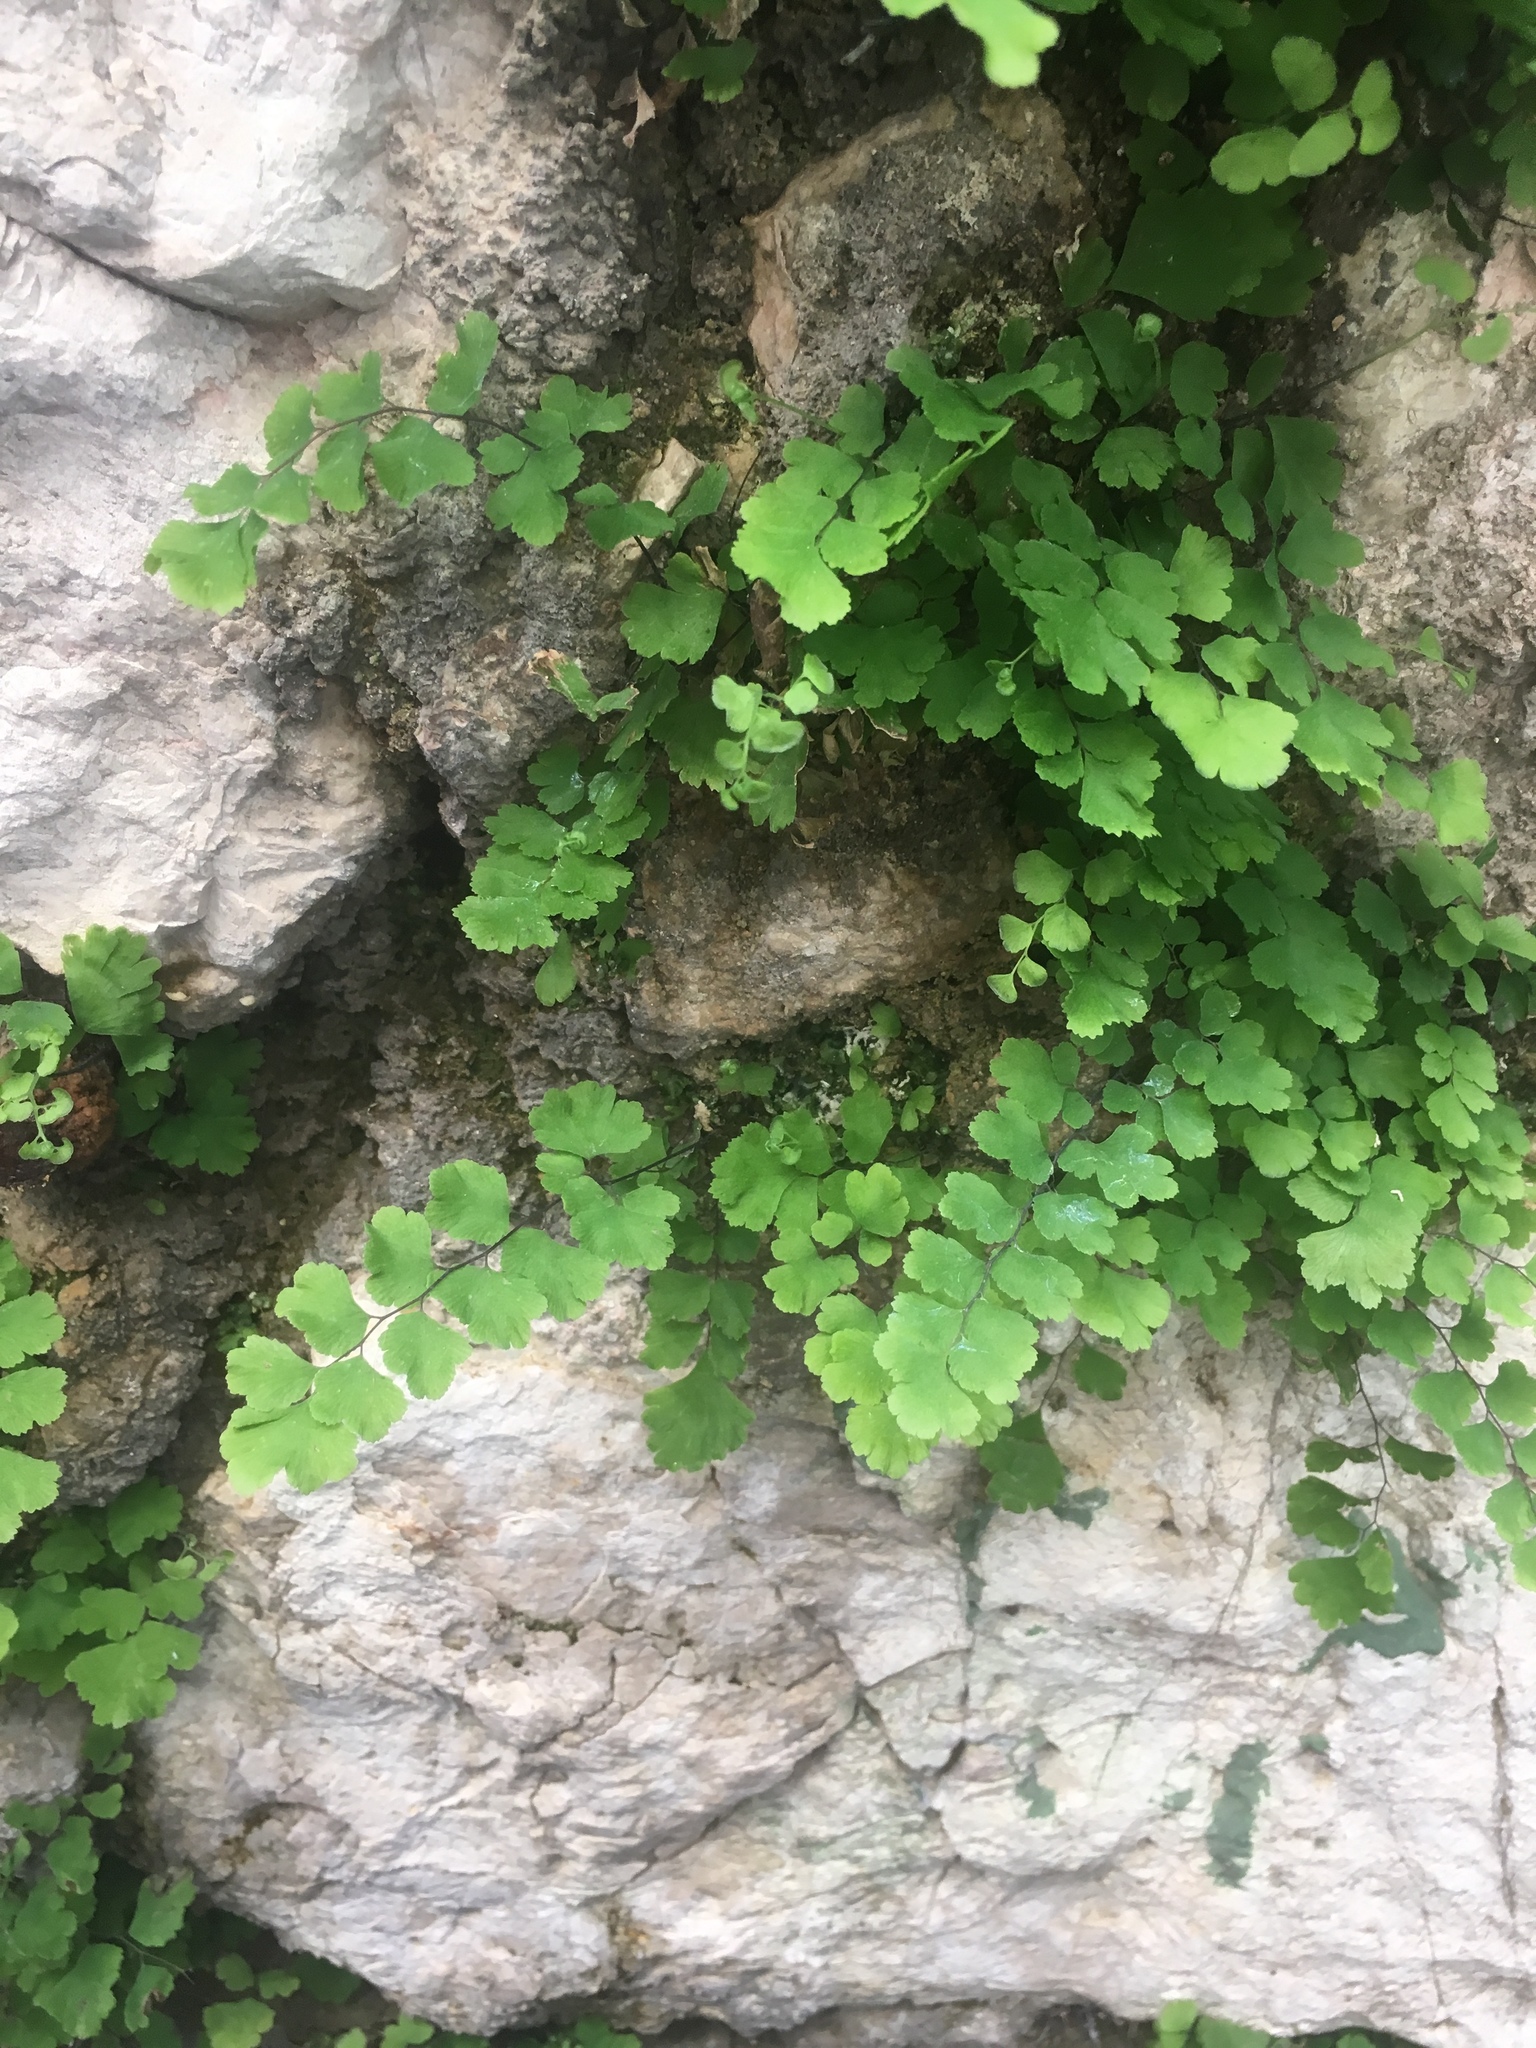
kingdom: Plantae
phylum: Tracheophyta
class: Polypodiopsida
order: Polypodiales
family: Pteridaceae
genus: Adiantum
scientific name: Adiantum capillus-veneris
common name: Maidenhair fern
